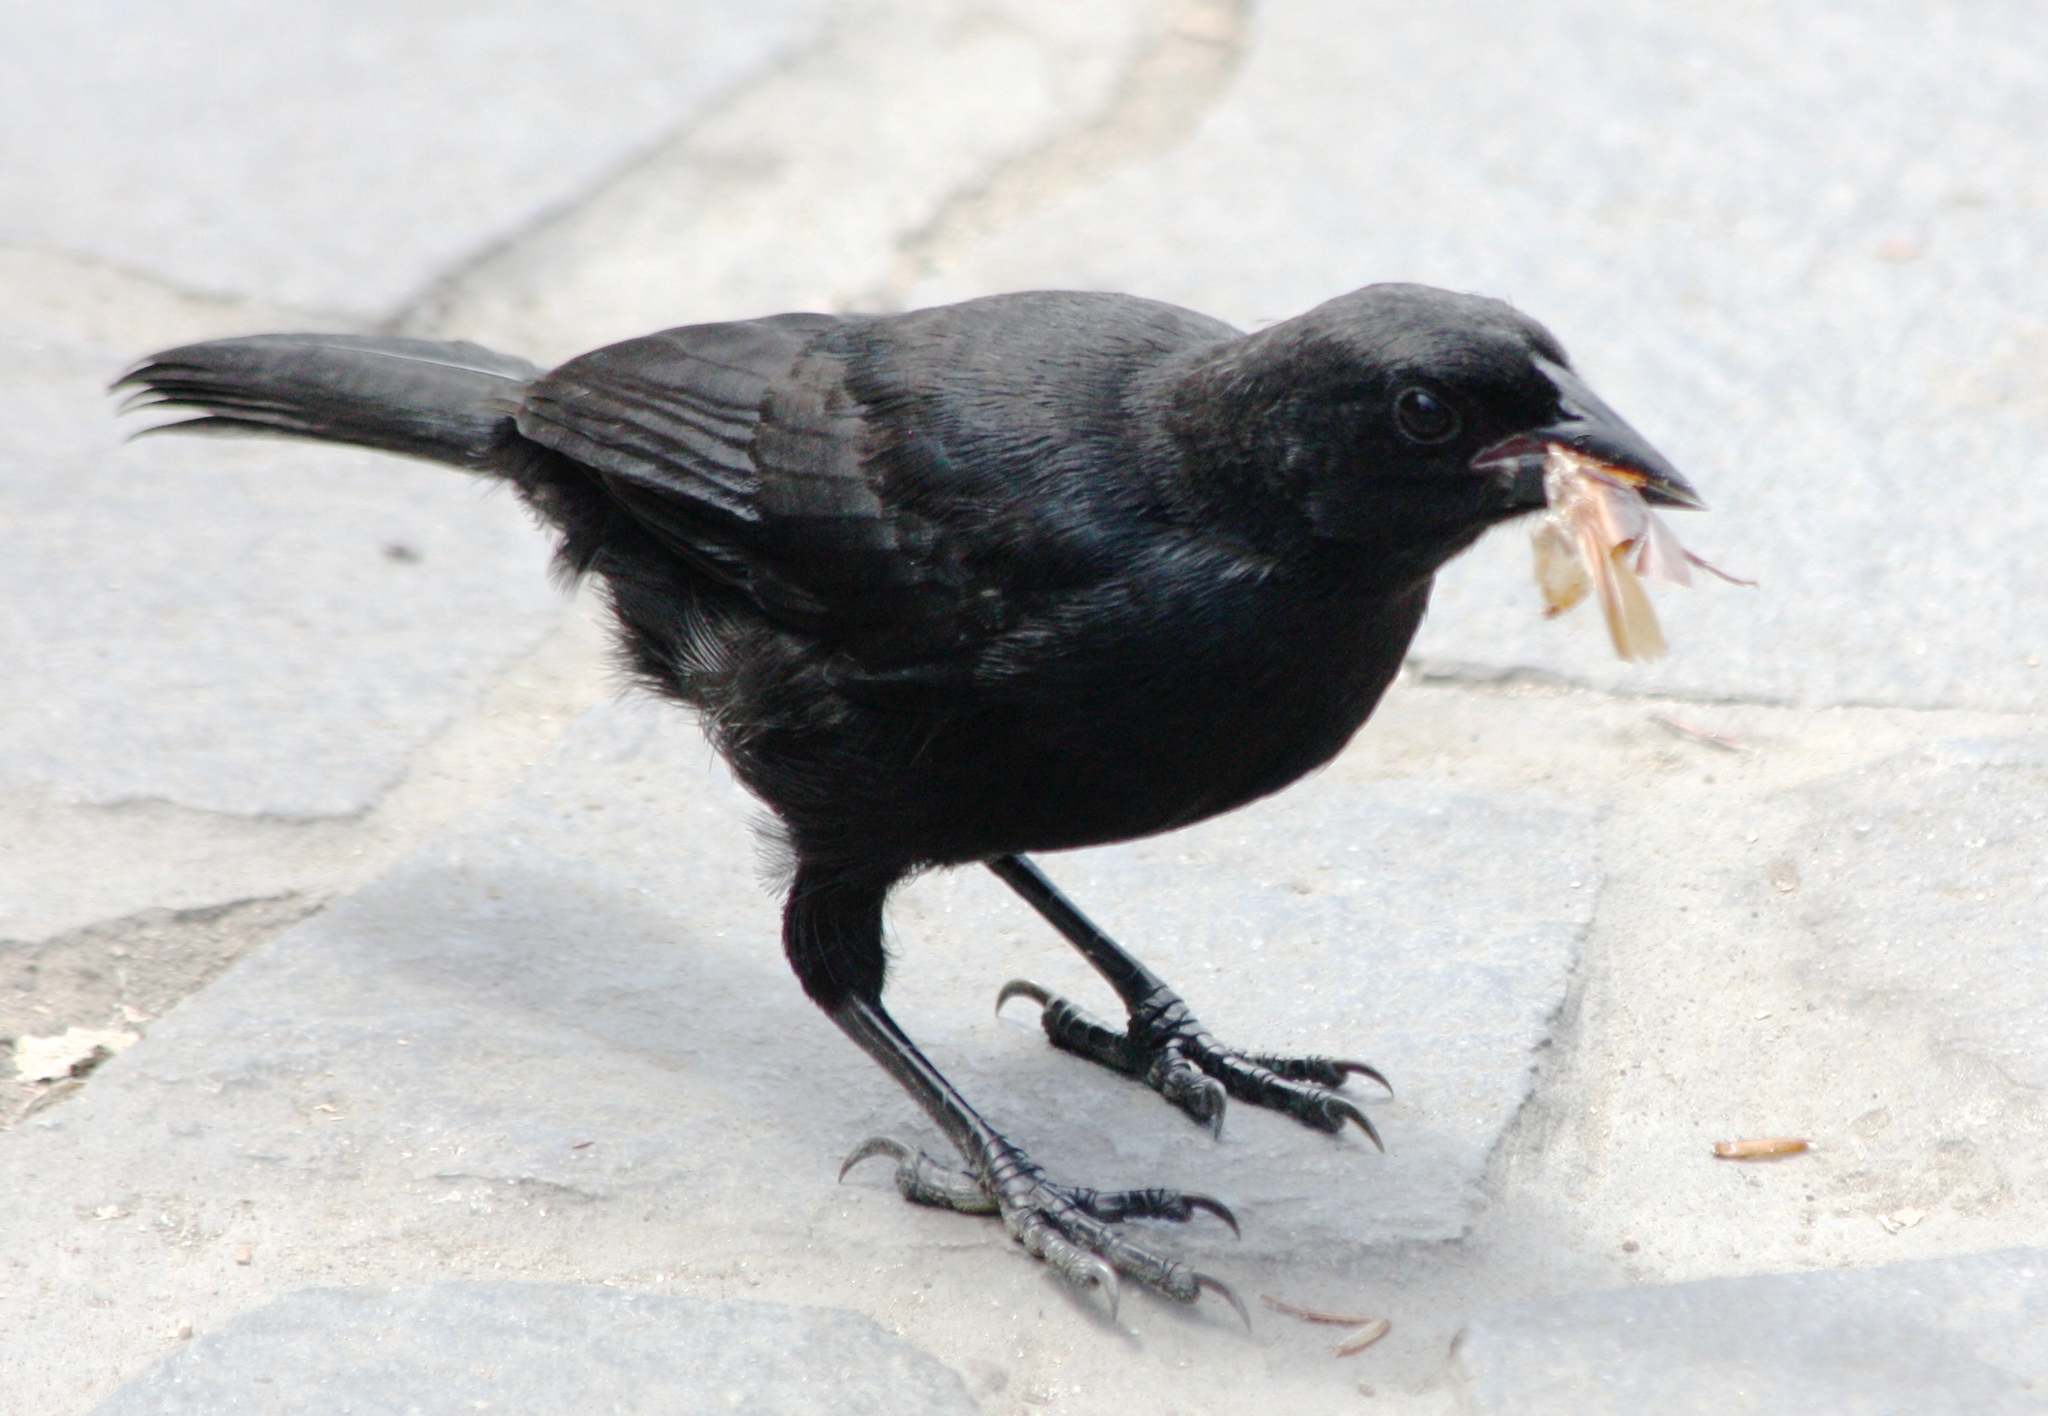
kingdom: Animalia
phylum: Chordata
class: Aves
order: Passeriformes
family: Icteridae
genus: Dives
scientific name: Dives warczewiczi
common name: Scrub blackbird
